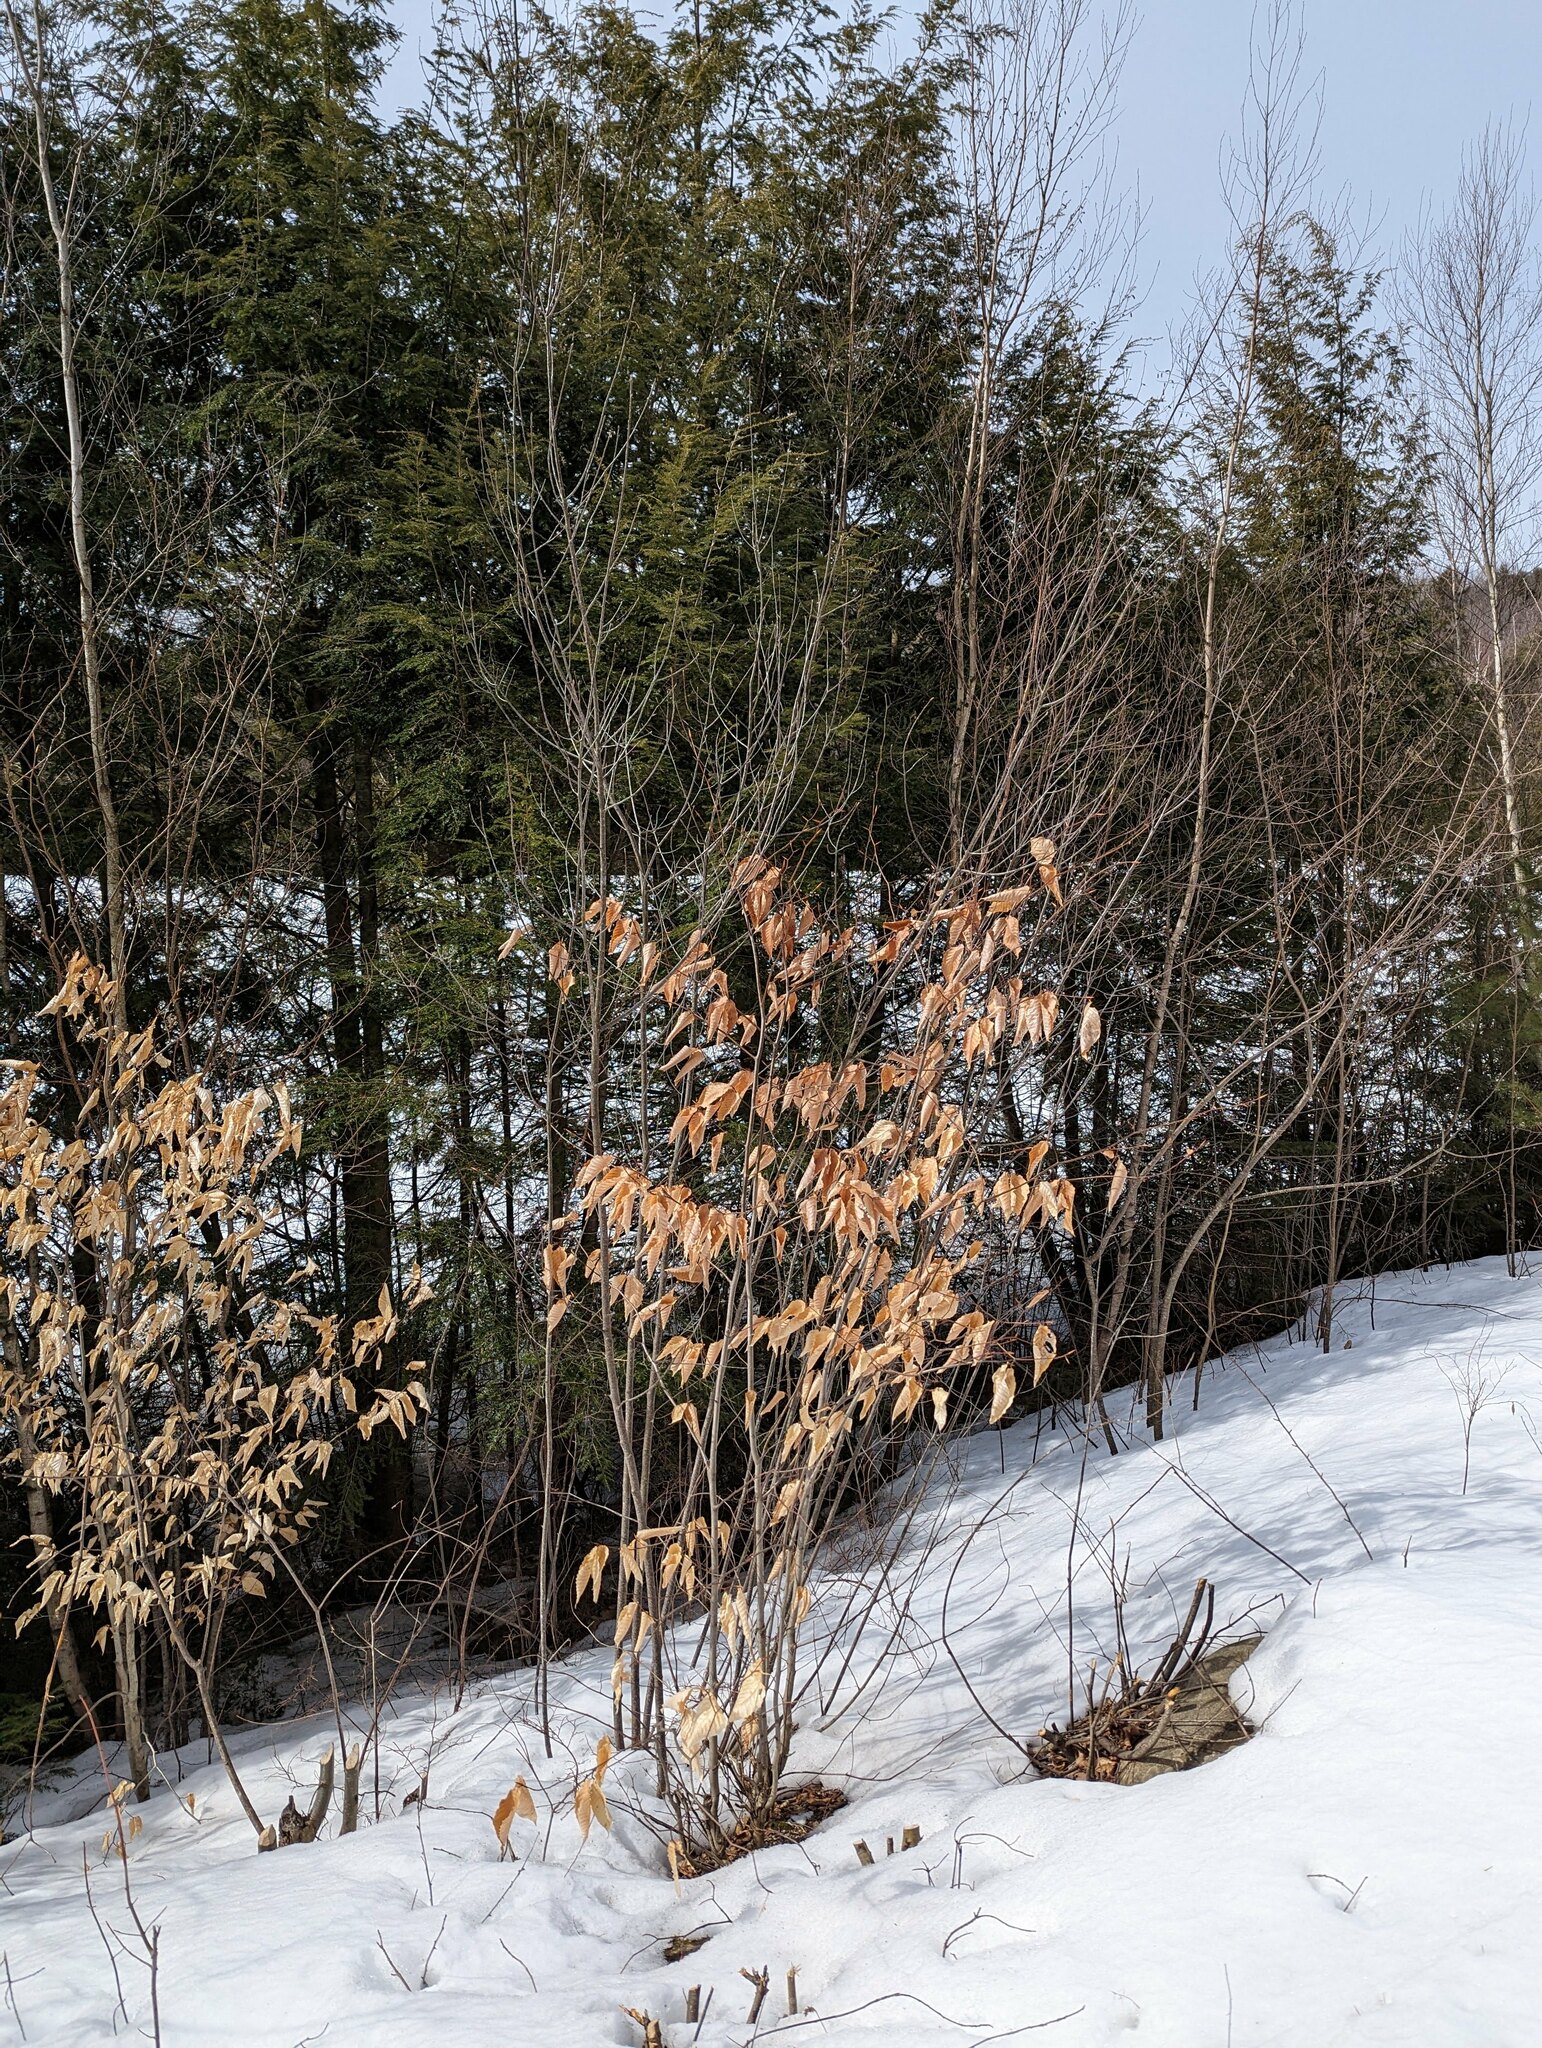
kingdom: Plantae
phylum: Tracheophyta
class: Magnoliopsida
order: Fagales
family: Fagaceae
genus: Fagus
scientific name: Fagus grandifolia
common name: American beech
